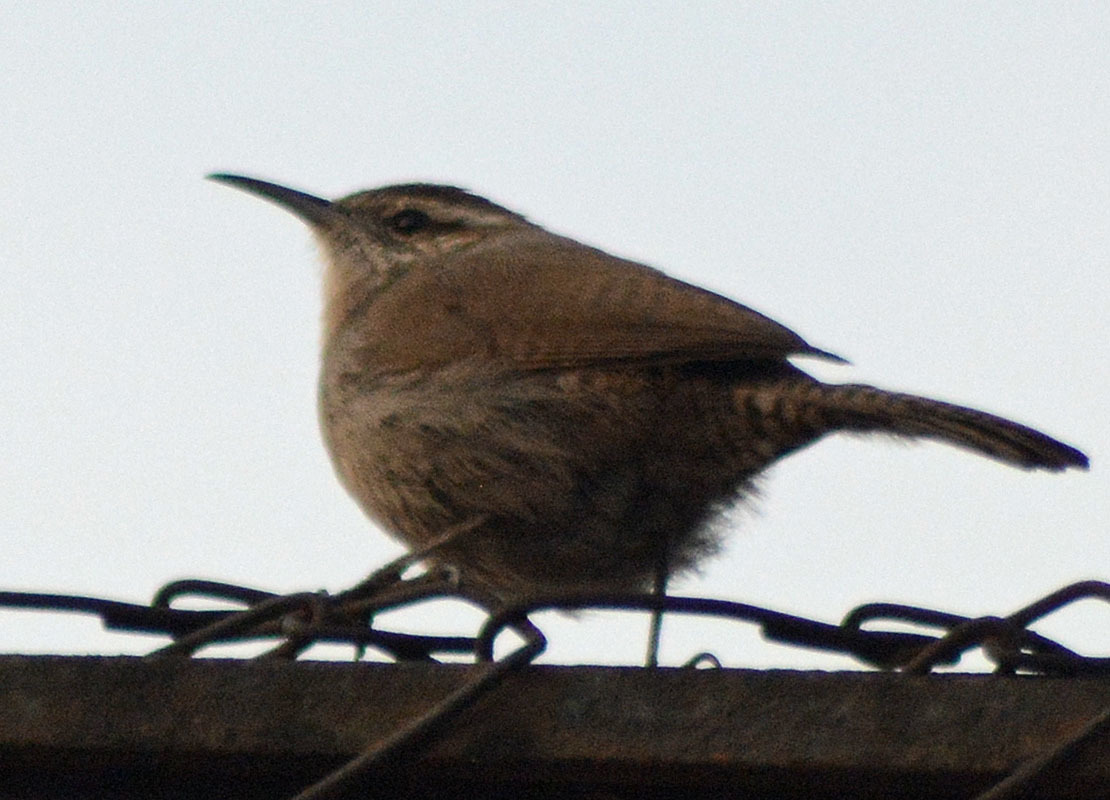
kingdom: Animalia
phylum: Chordata
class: Aves
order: Passeriformes
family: Troglodytidae
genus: Thryomanes
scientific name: Thryomanes bewickii
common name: Bewick's wren
